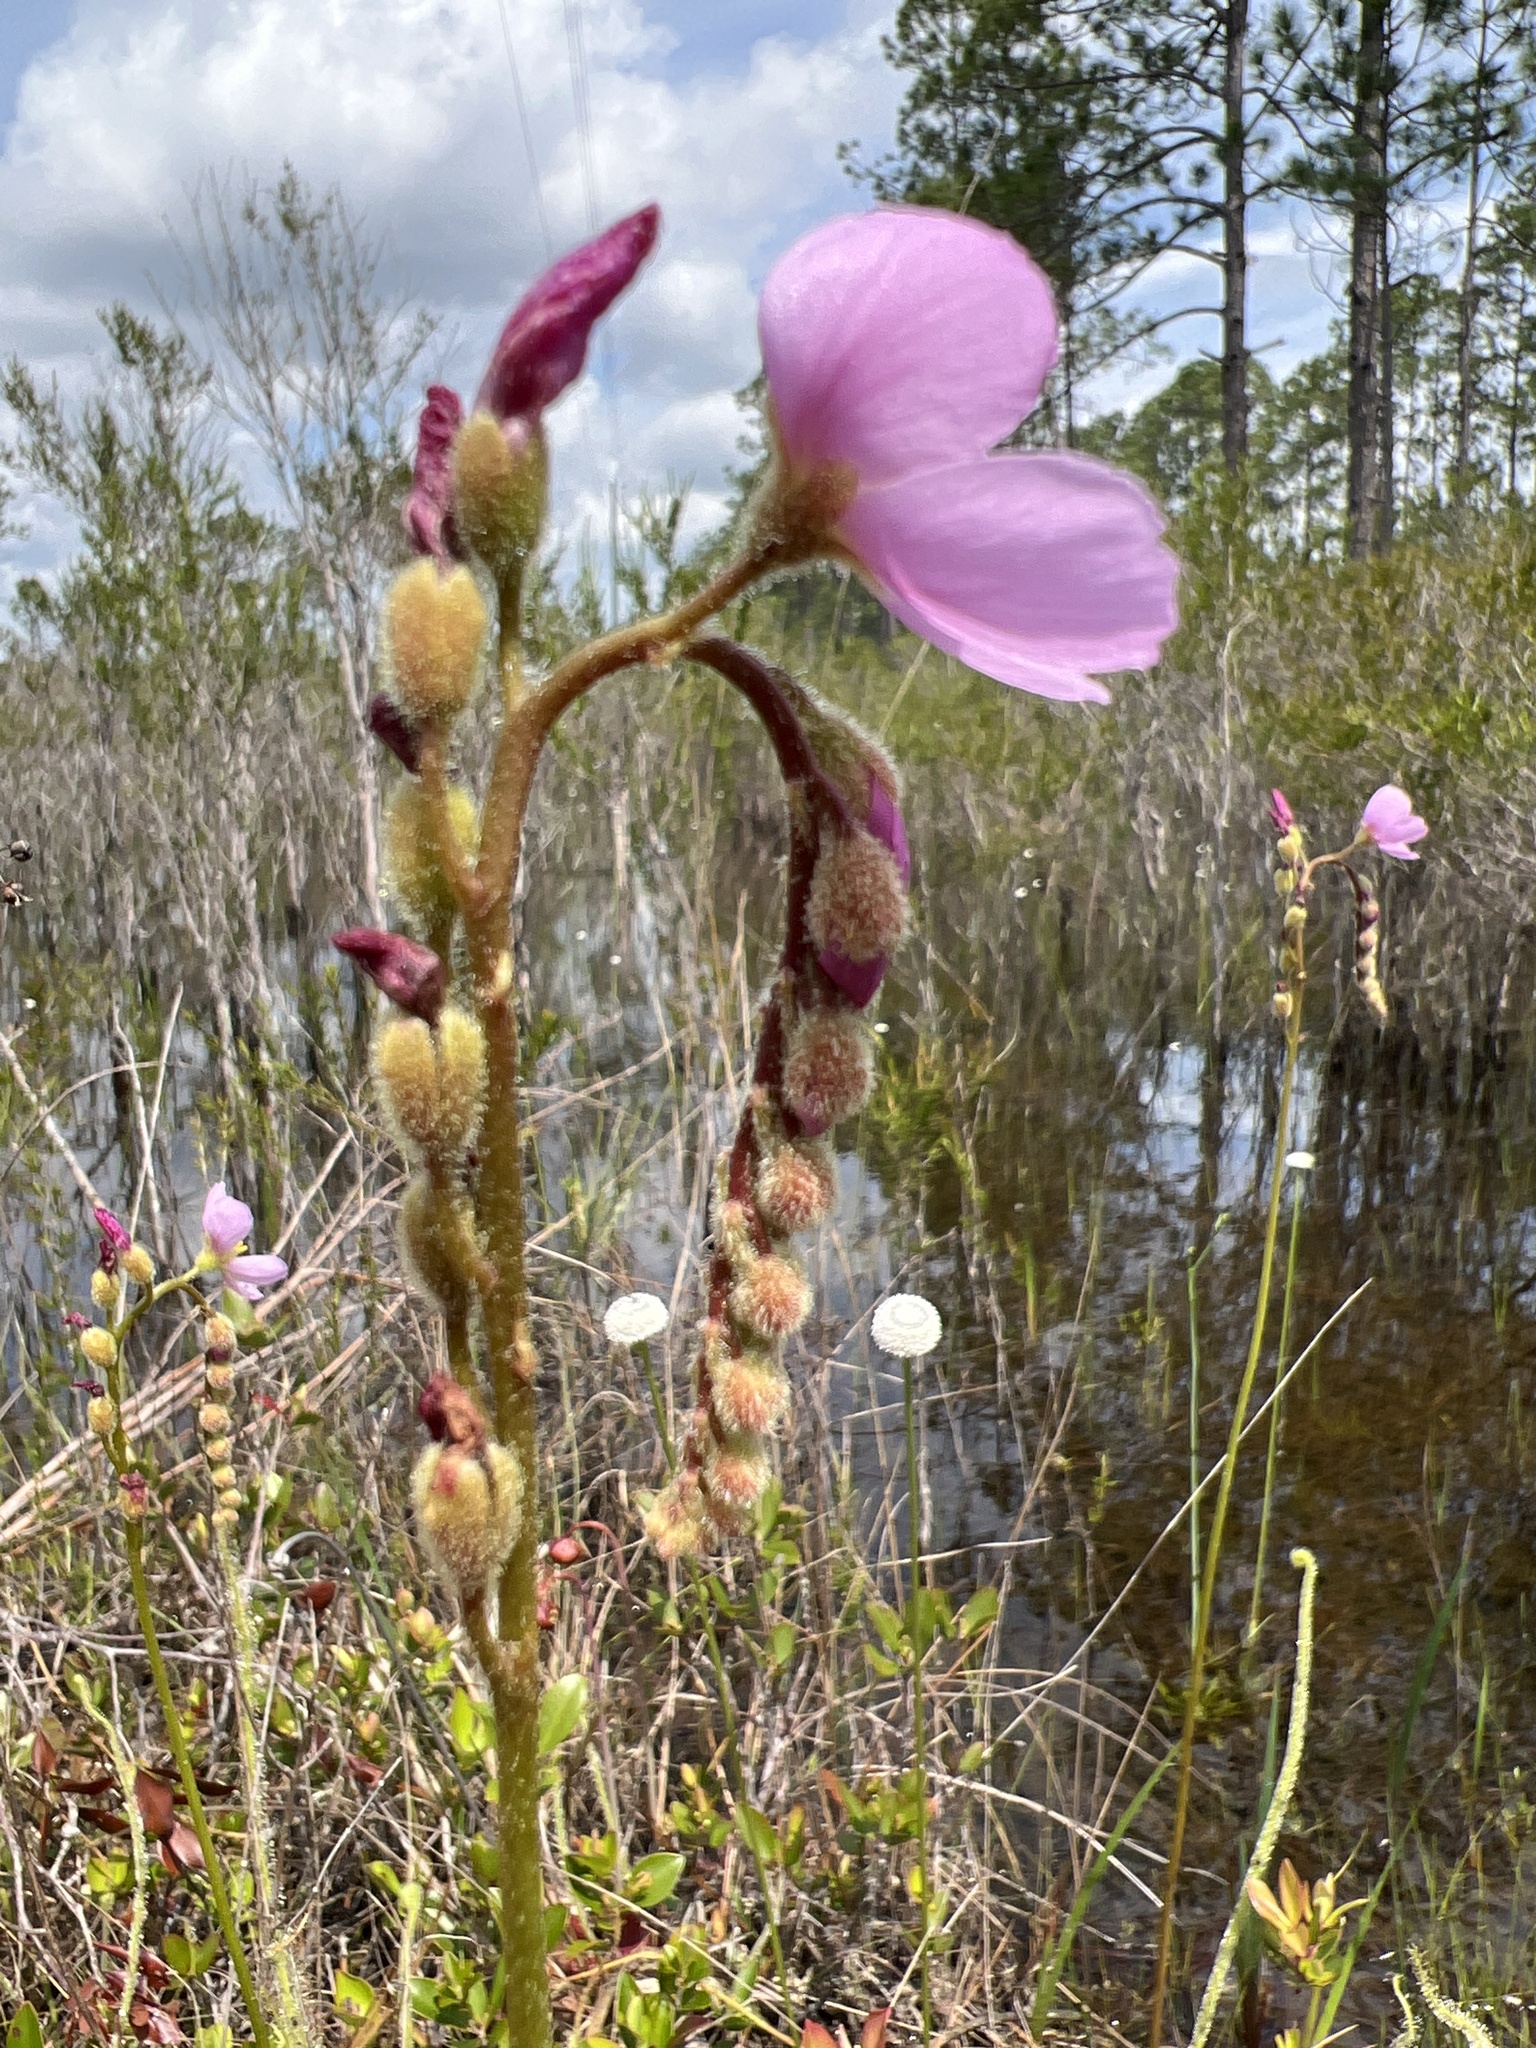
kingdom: Plantae
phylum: Tracheophyta
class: Magnoliopsida
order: Caryophyllales
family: Droseraceae
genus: Drosera
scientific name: Drosera filiformis
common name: Dew-thread
